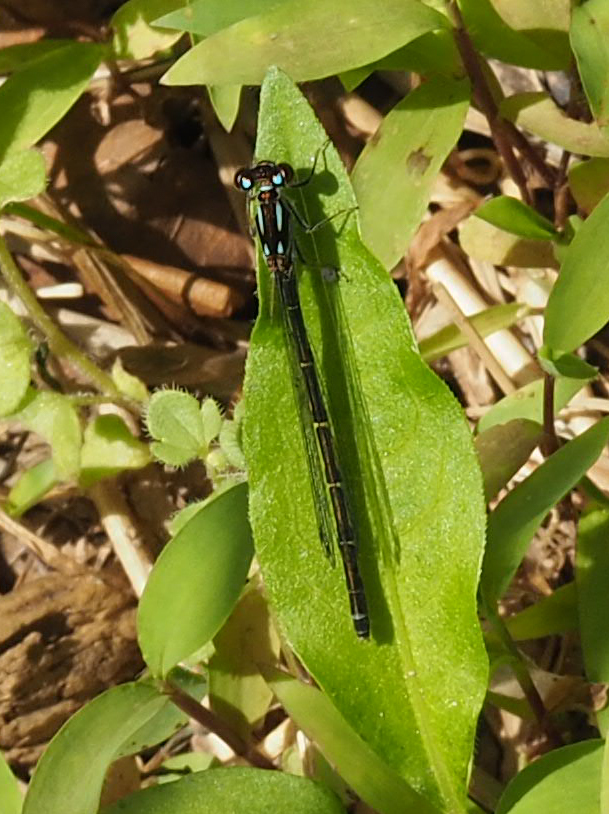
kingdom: Animalia
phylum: Arthropoda
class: Insecta
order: Odonata
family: Coenagrionidae
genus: Ischnura
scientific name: Ischnura posita
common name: Fragile forktail
